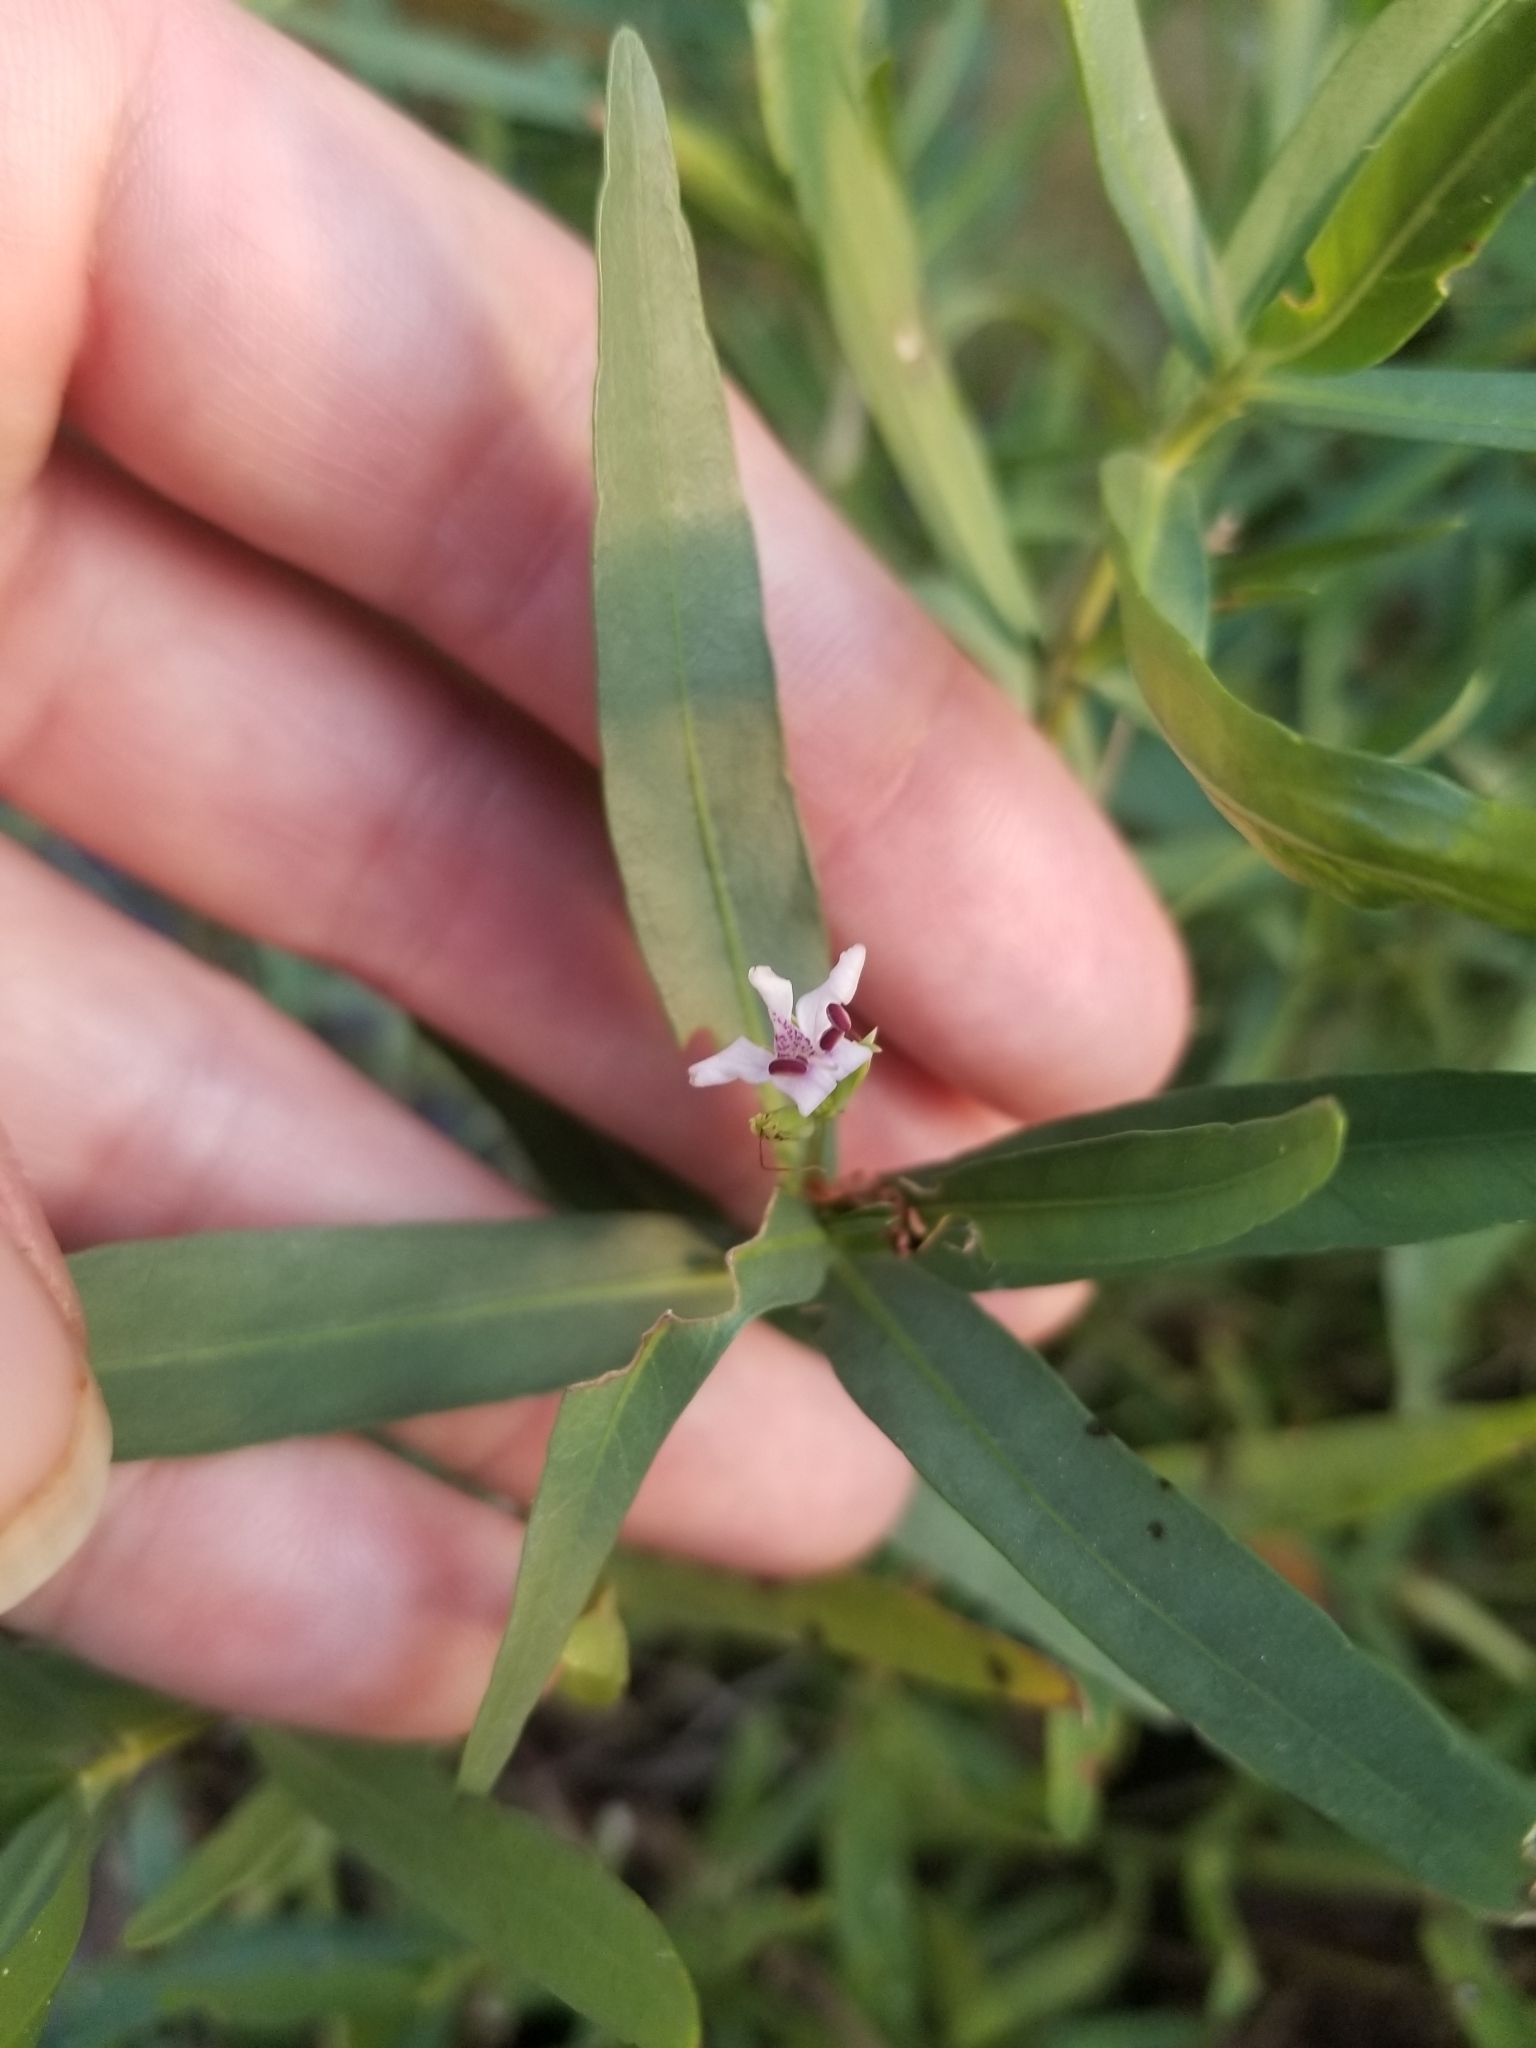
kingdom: Plantae
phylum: Tracheophyta
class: Magnoliopsida
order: Lamiales
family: Acanthaceae
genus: Dianthera
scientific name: Dianthera americana
